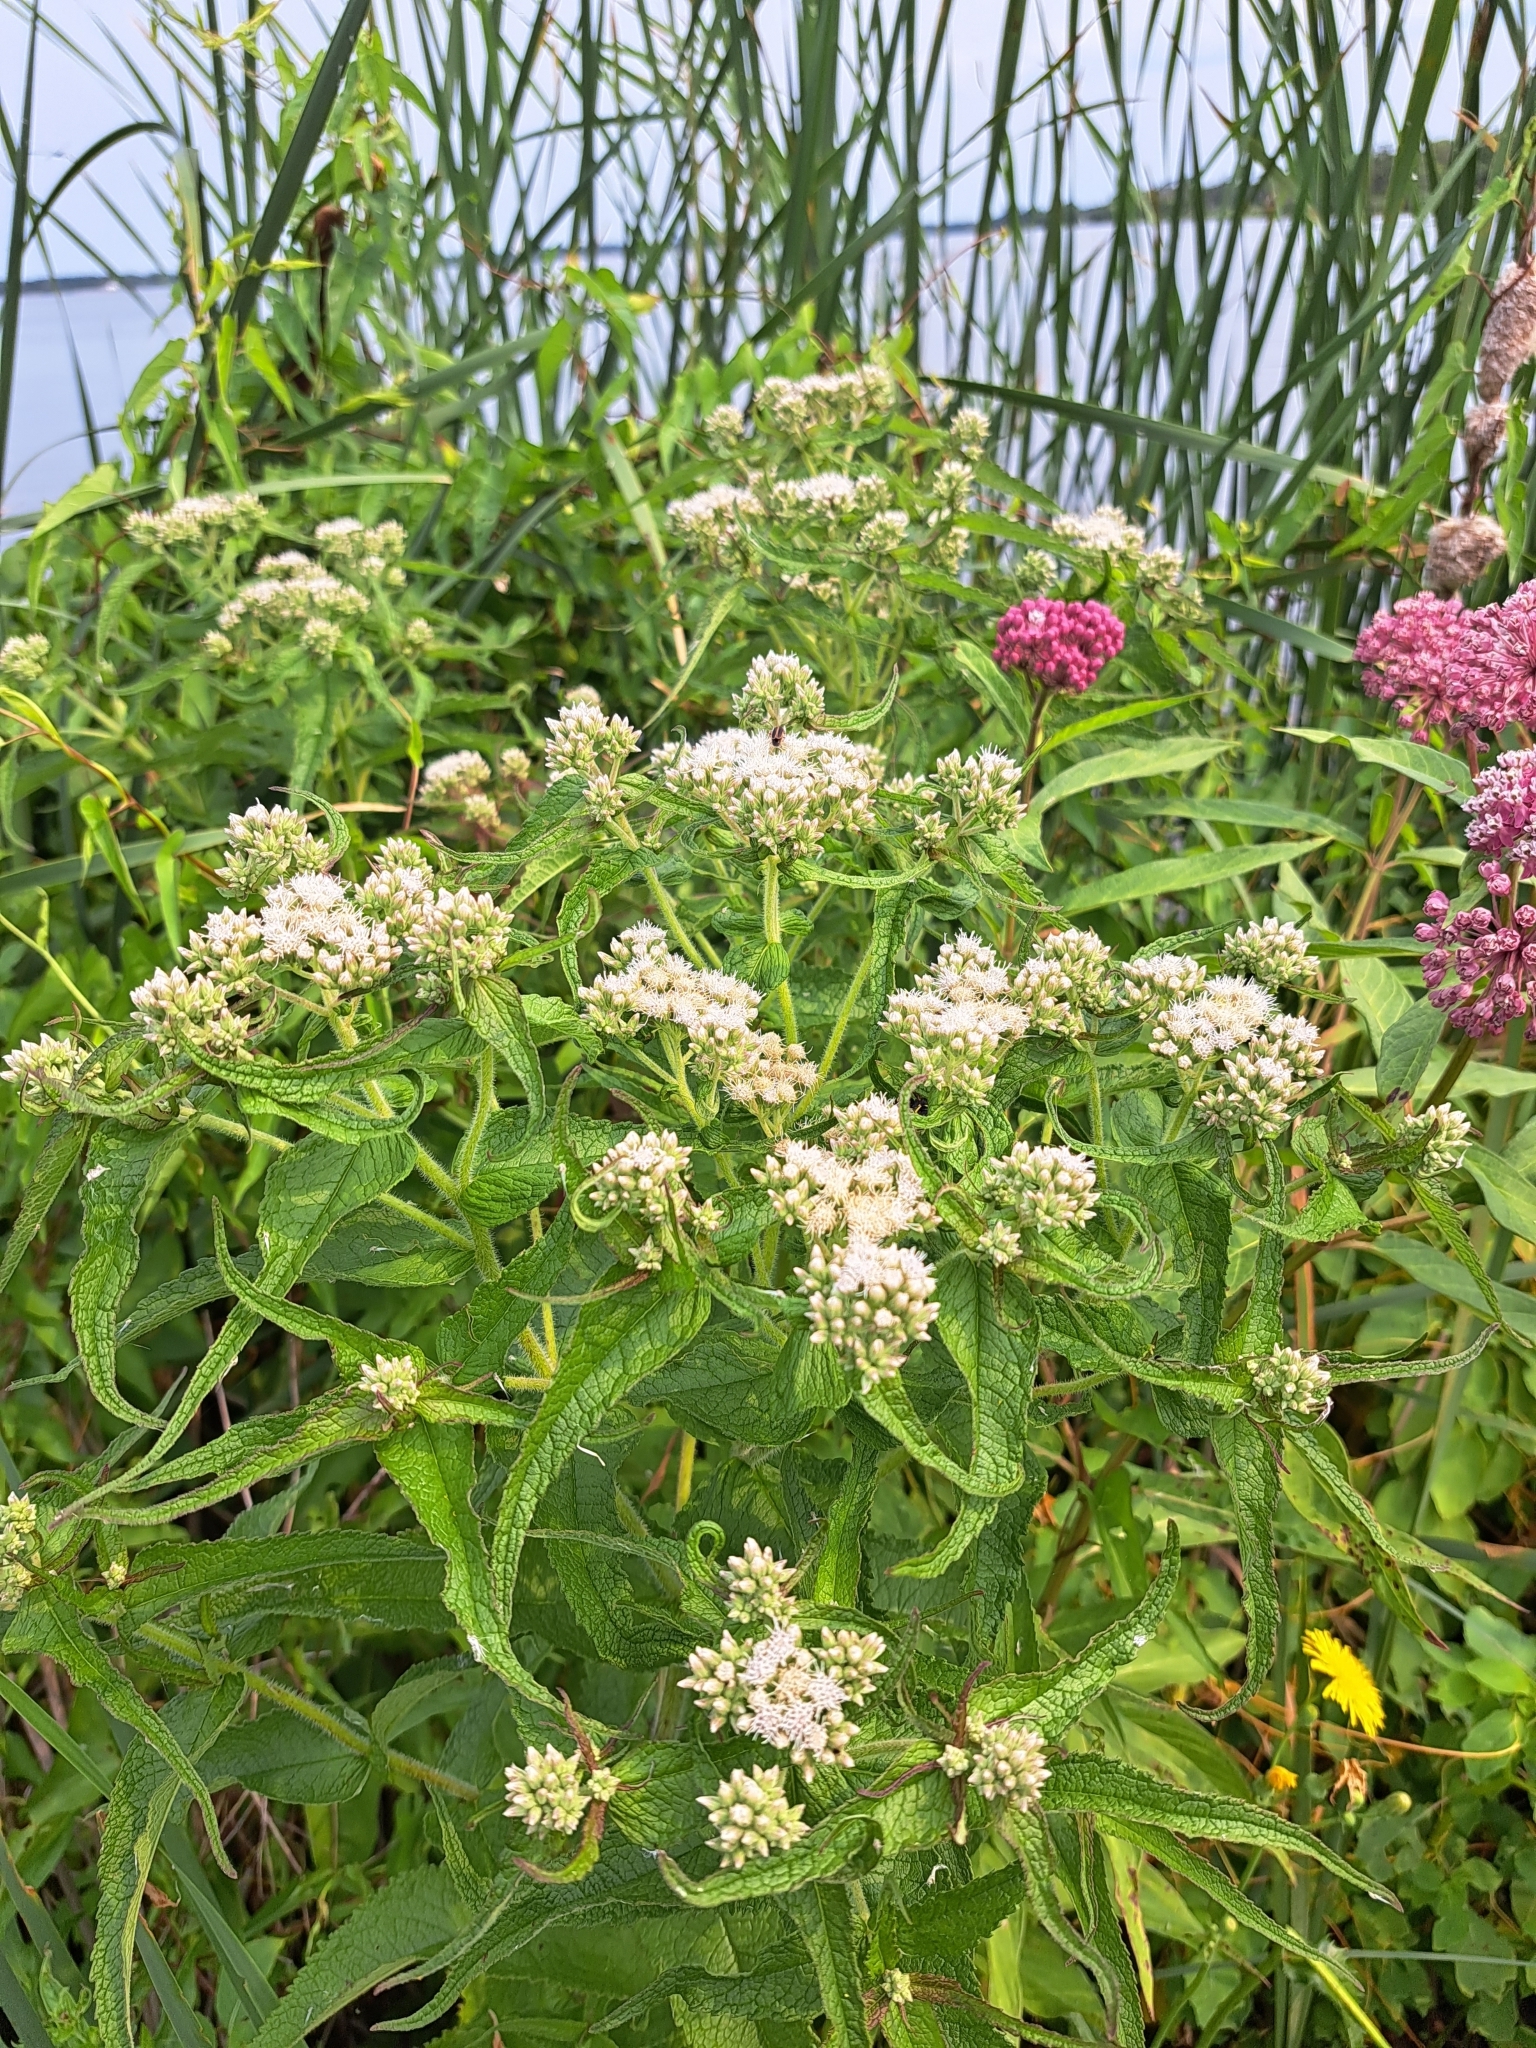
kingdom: Plantae
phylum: Tracheophyta
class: Magnoliopsida
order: Asterales
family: Asteraceae
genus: Eupatorium
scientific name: Eupatorium perfoliatum
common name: Boneset
